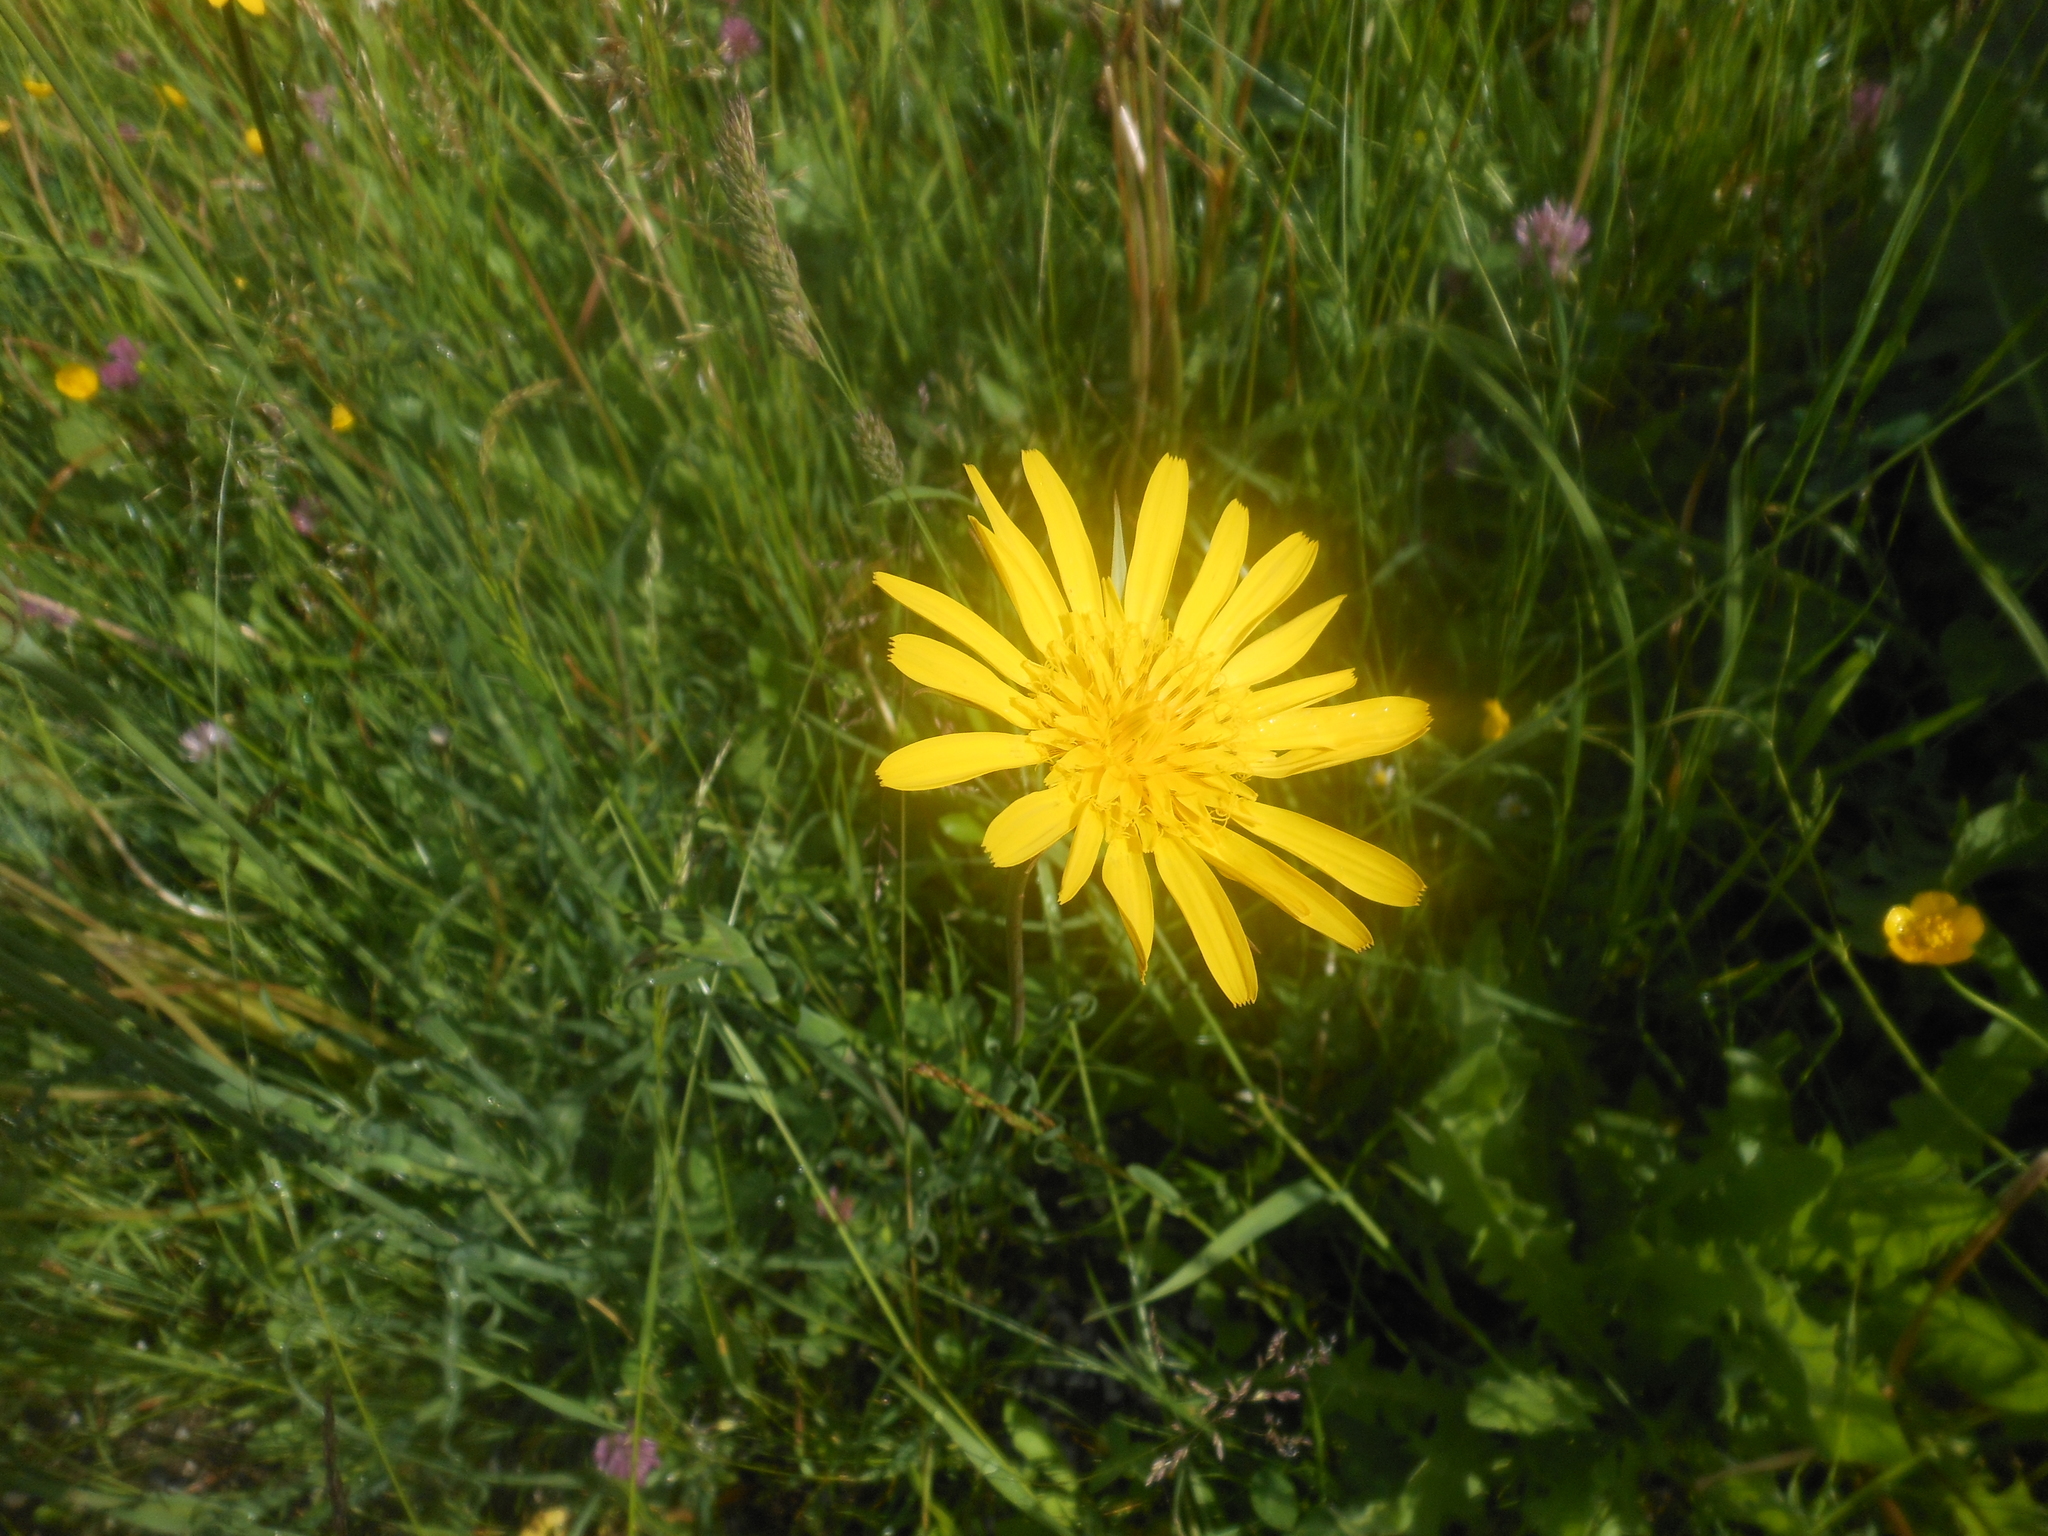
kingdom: Plantae
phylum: Tracheophyta
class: Magnoliopsida
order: Asterales
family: Asteraceae
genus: Tragopogon
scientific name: Tragopogon orientalis
